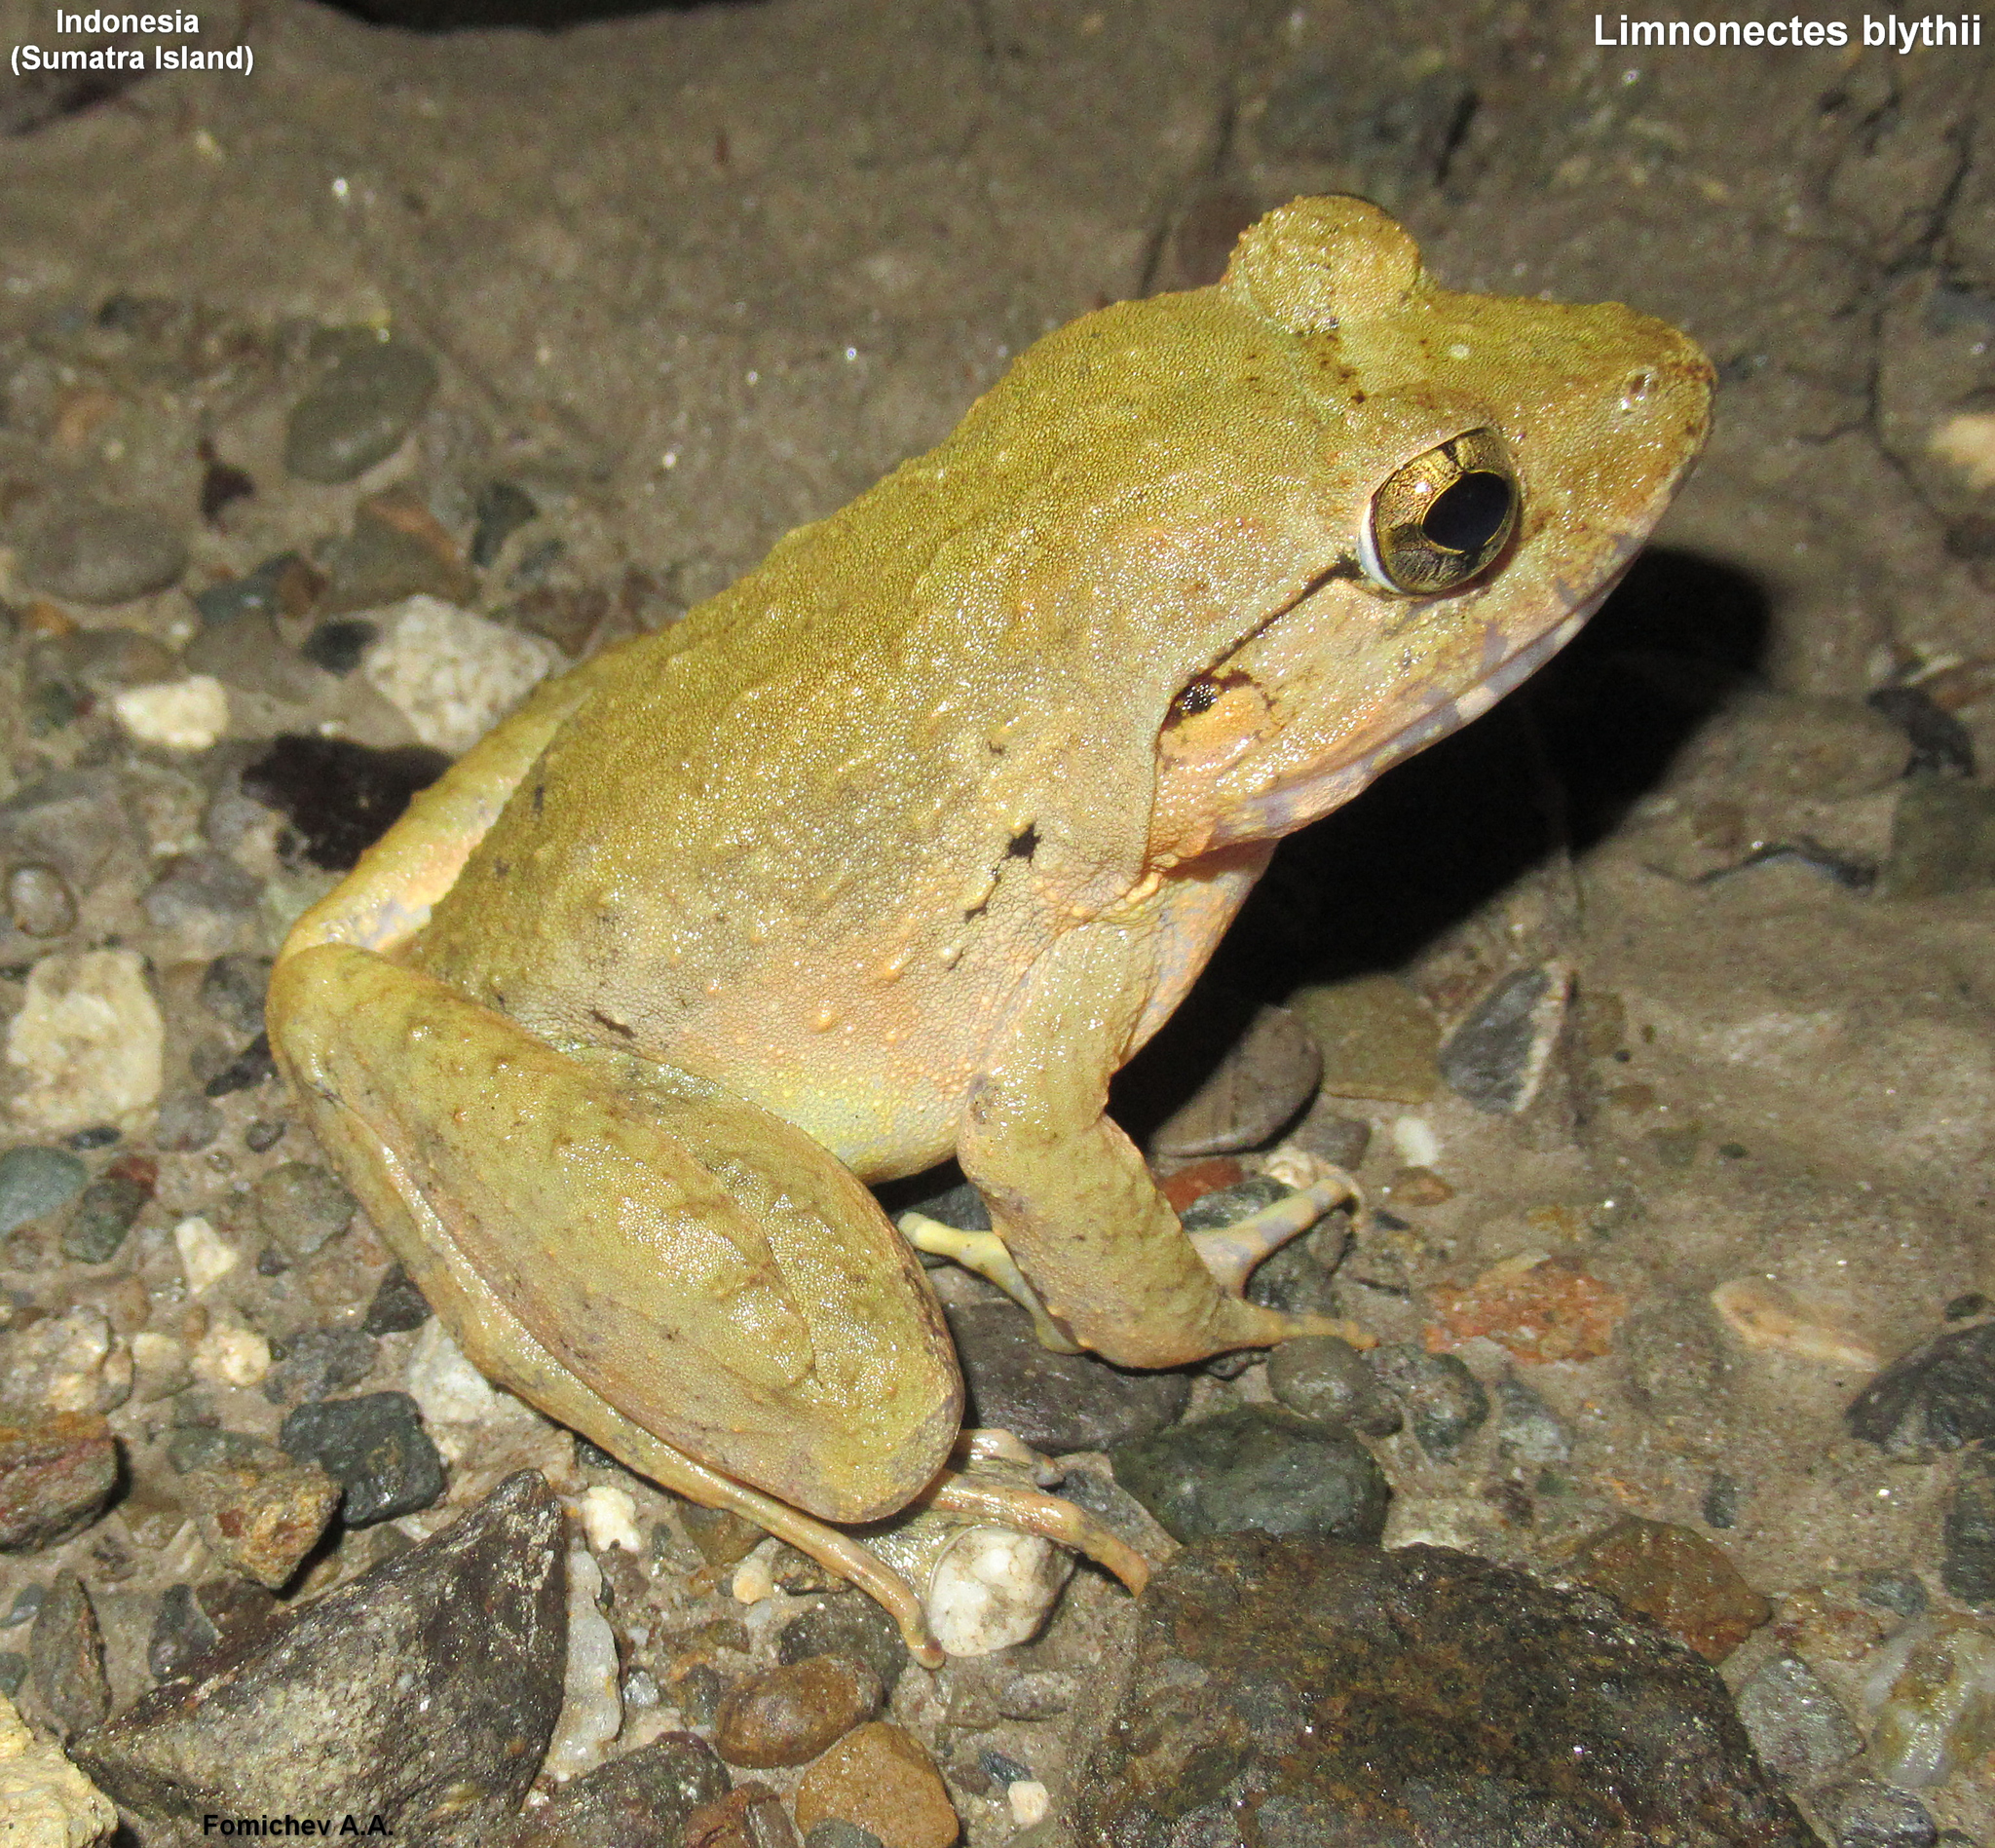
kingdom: Animalia
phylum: Chordata
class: Amphibia
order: Anura
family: Dicroglossidae
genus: Limnonectes
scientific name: Limnonectes blythii
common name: Blyth’s river frog/giant asian river frog/giant frog
